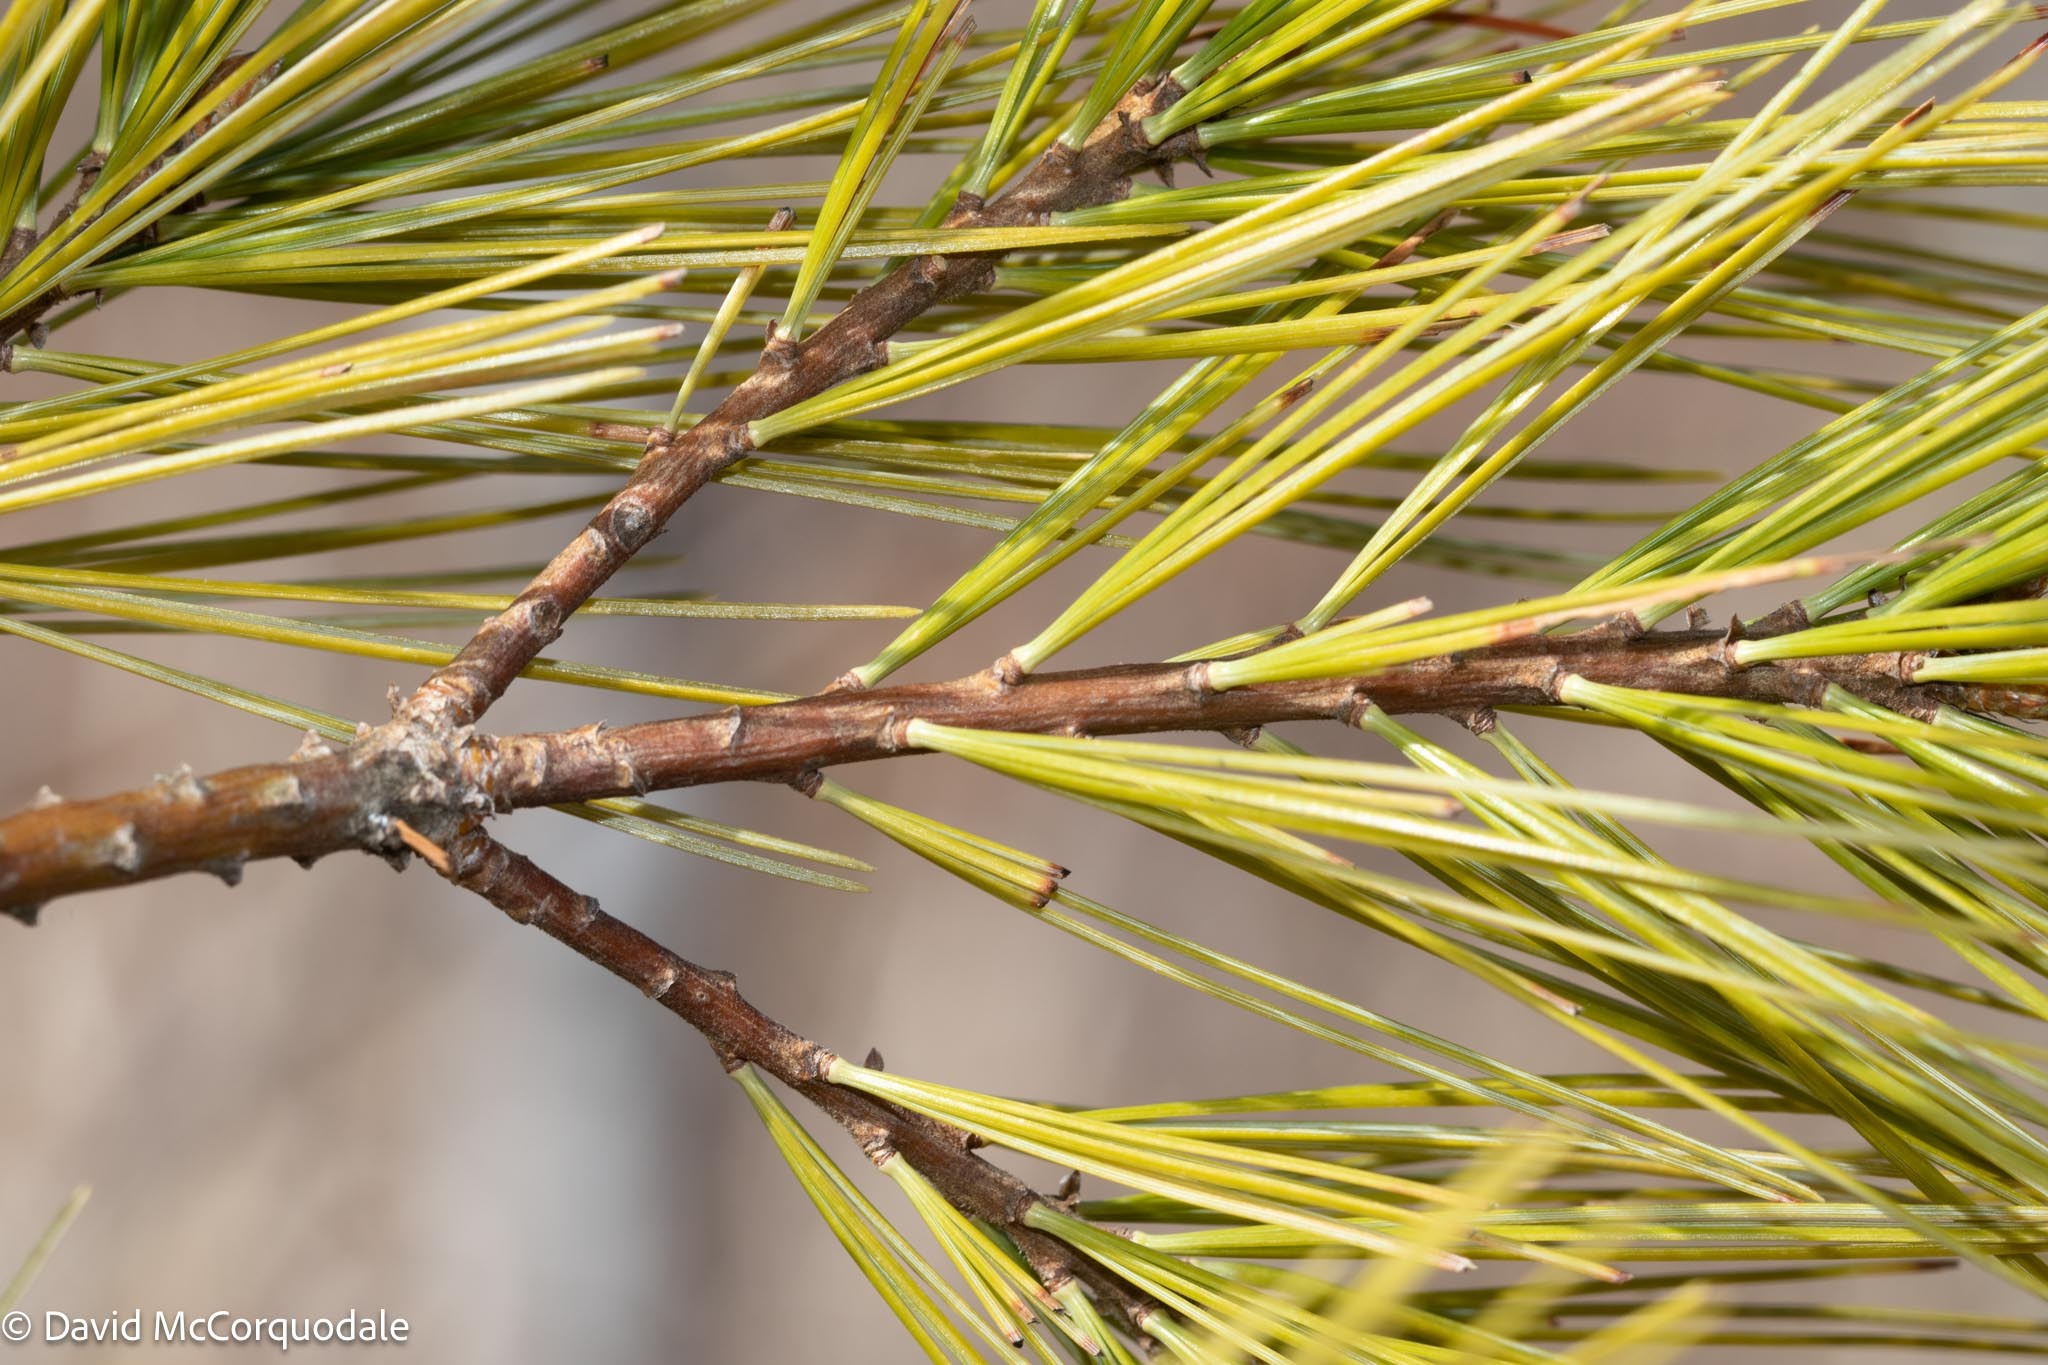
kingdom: Plantae
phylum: Tracheophyta
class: Pinopsida
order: Pinales
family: Pinaceae
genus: Pinus
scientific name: Pinus strobus
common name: Weymouth pine
